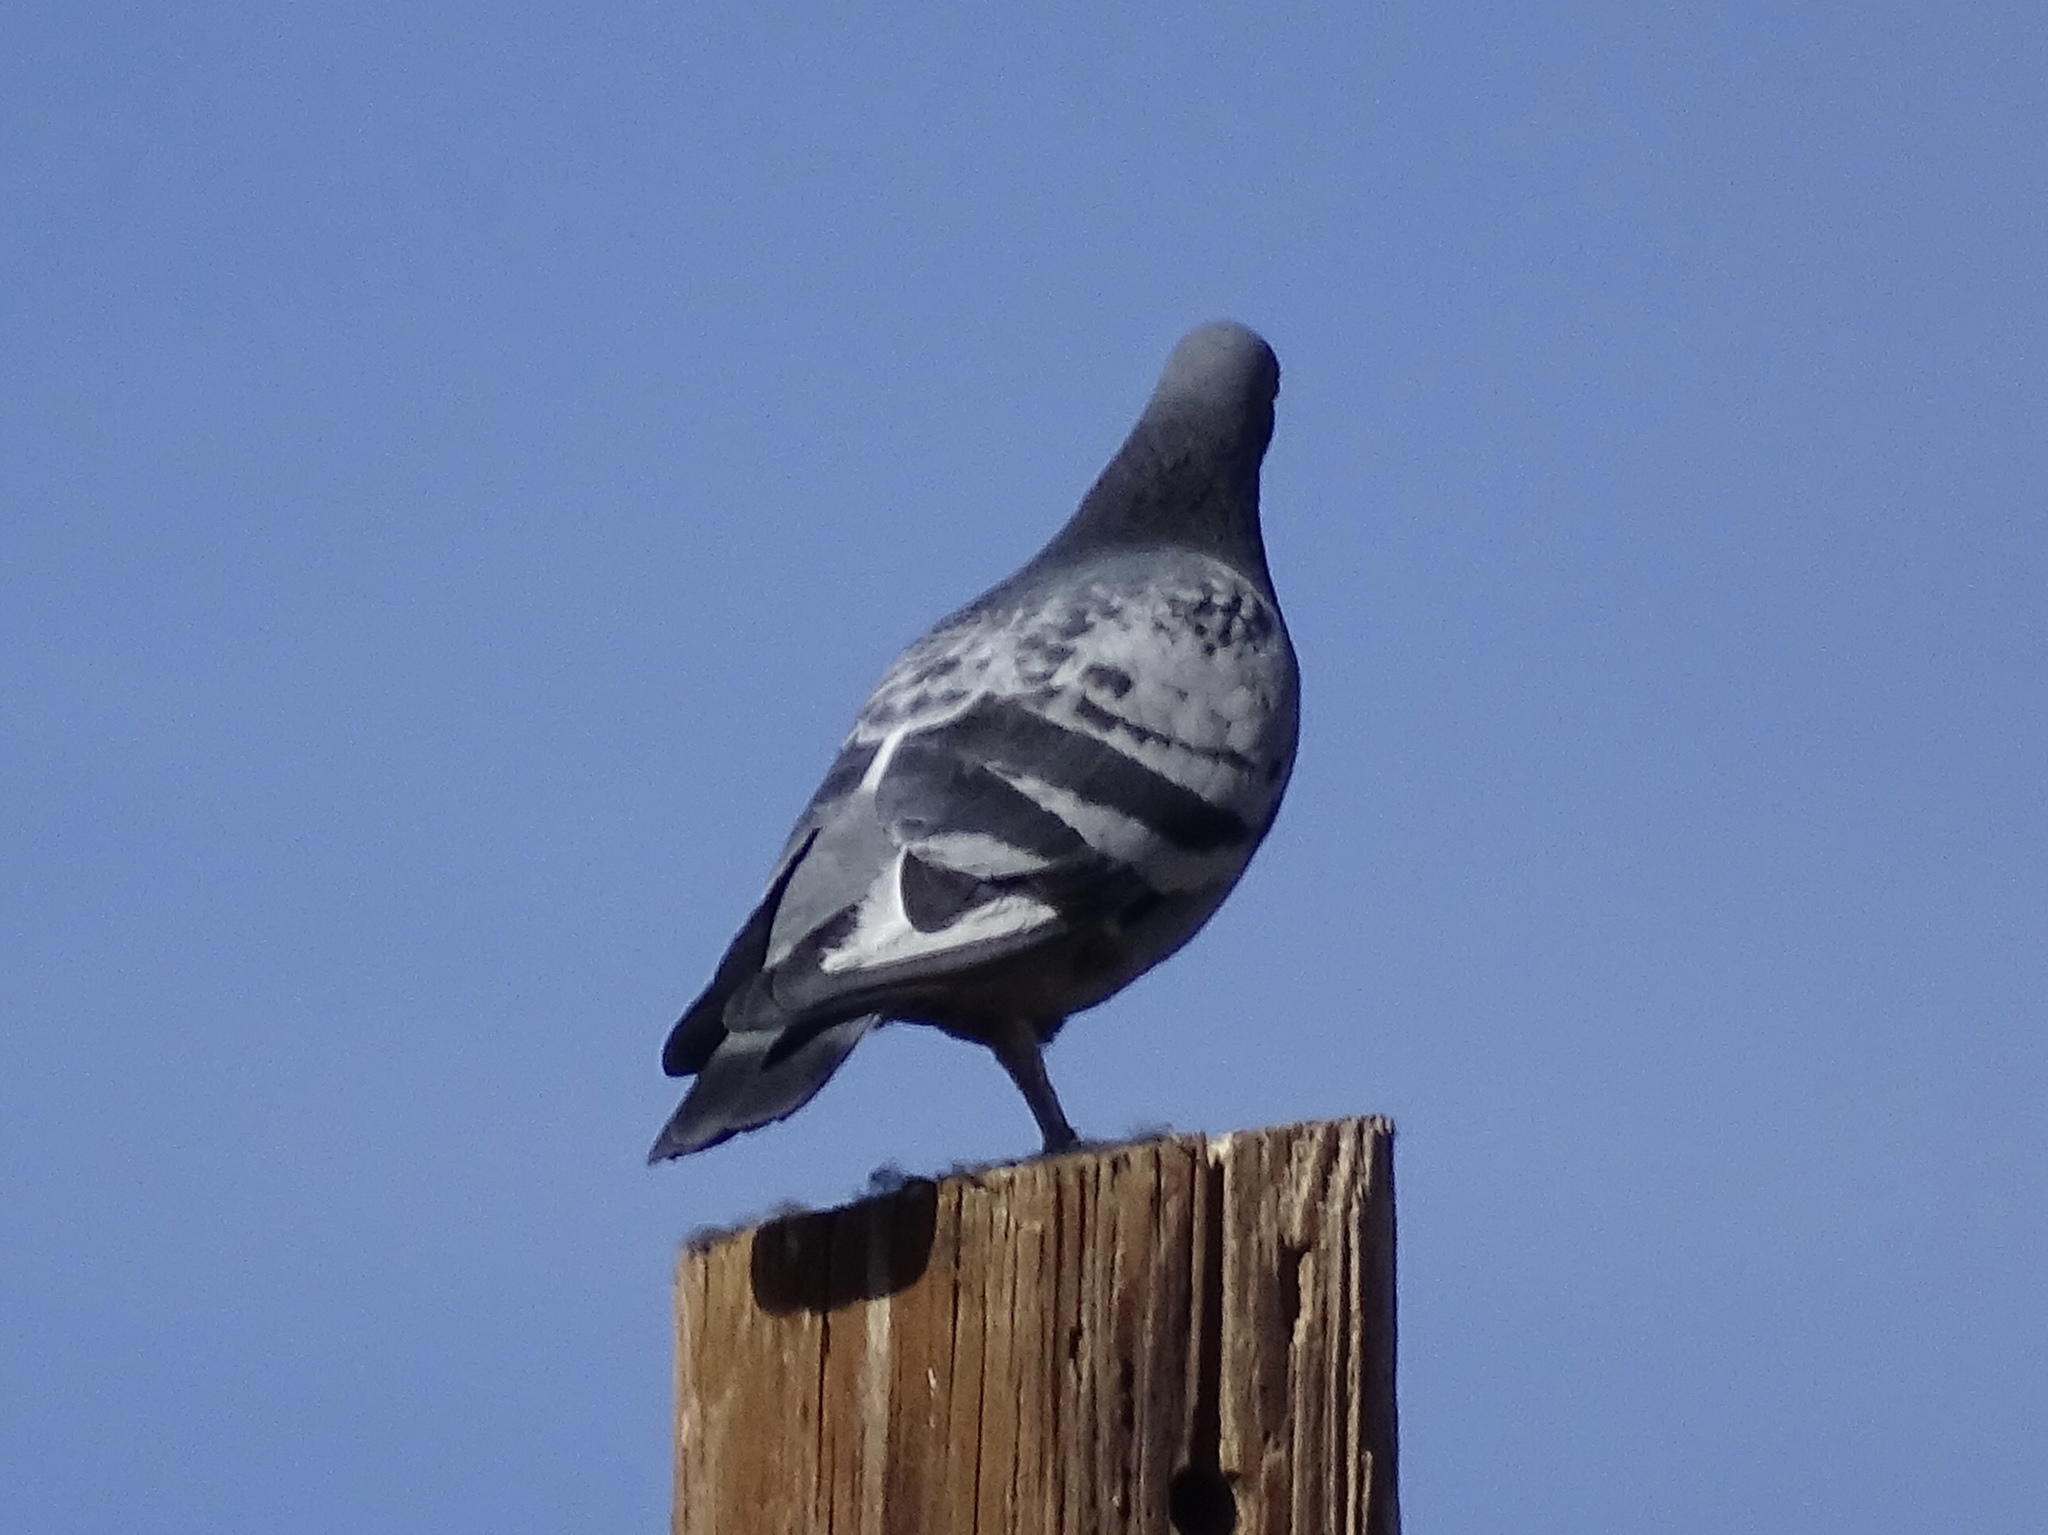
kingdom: Animalia
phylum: Chordata
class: Aves
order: Columbiformes
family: Columbidae
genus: Columba
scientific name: Columba livia
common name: Rock pigeon
